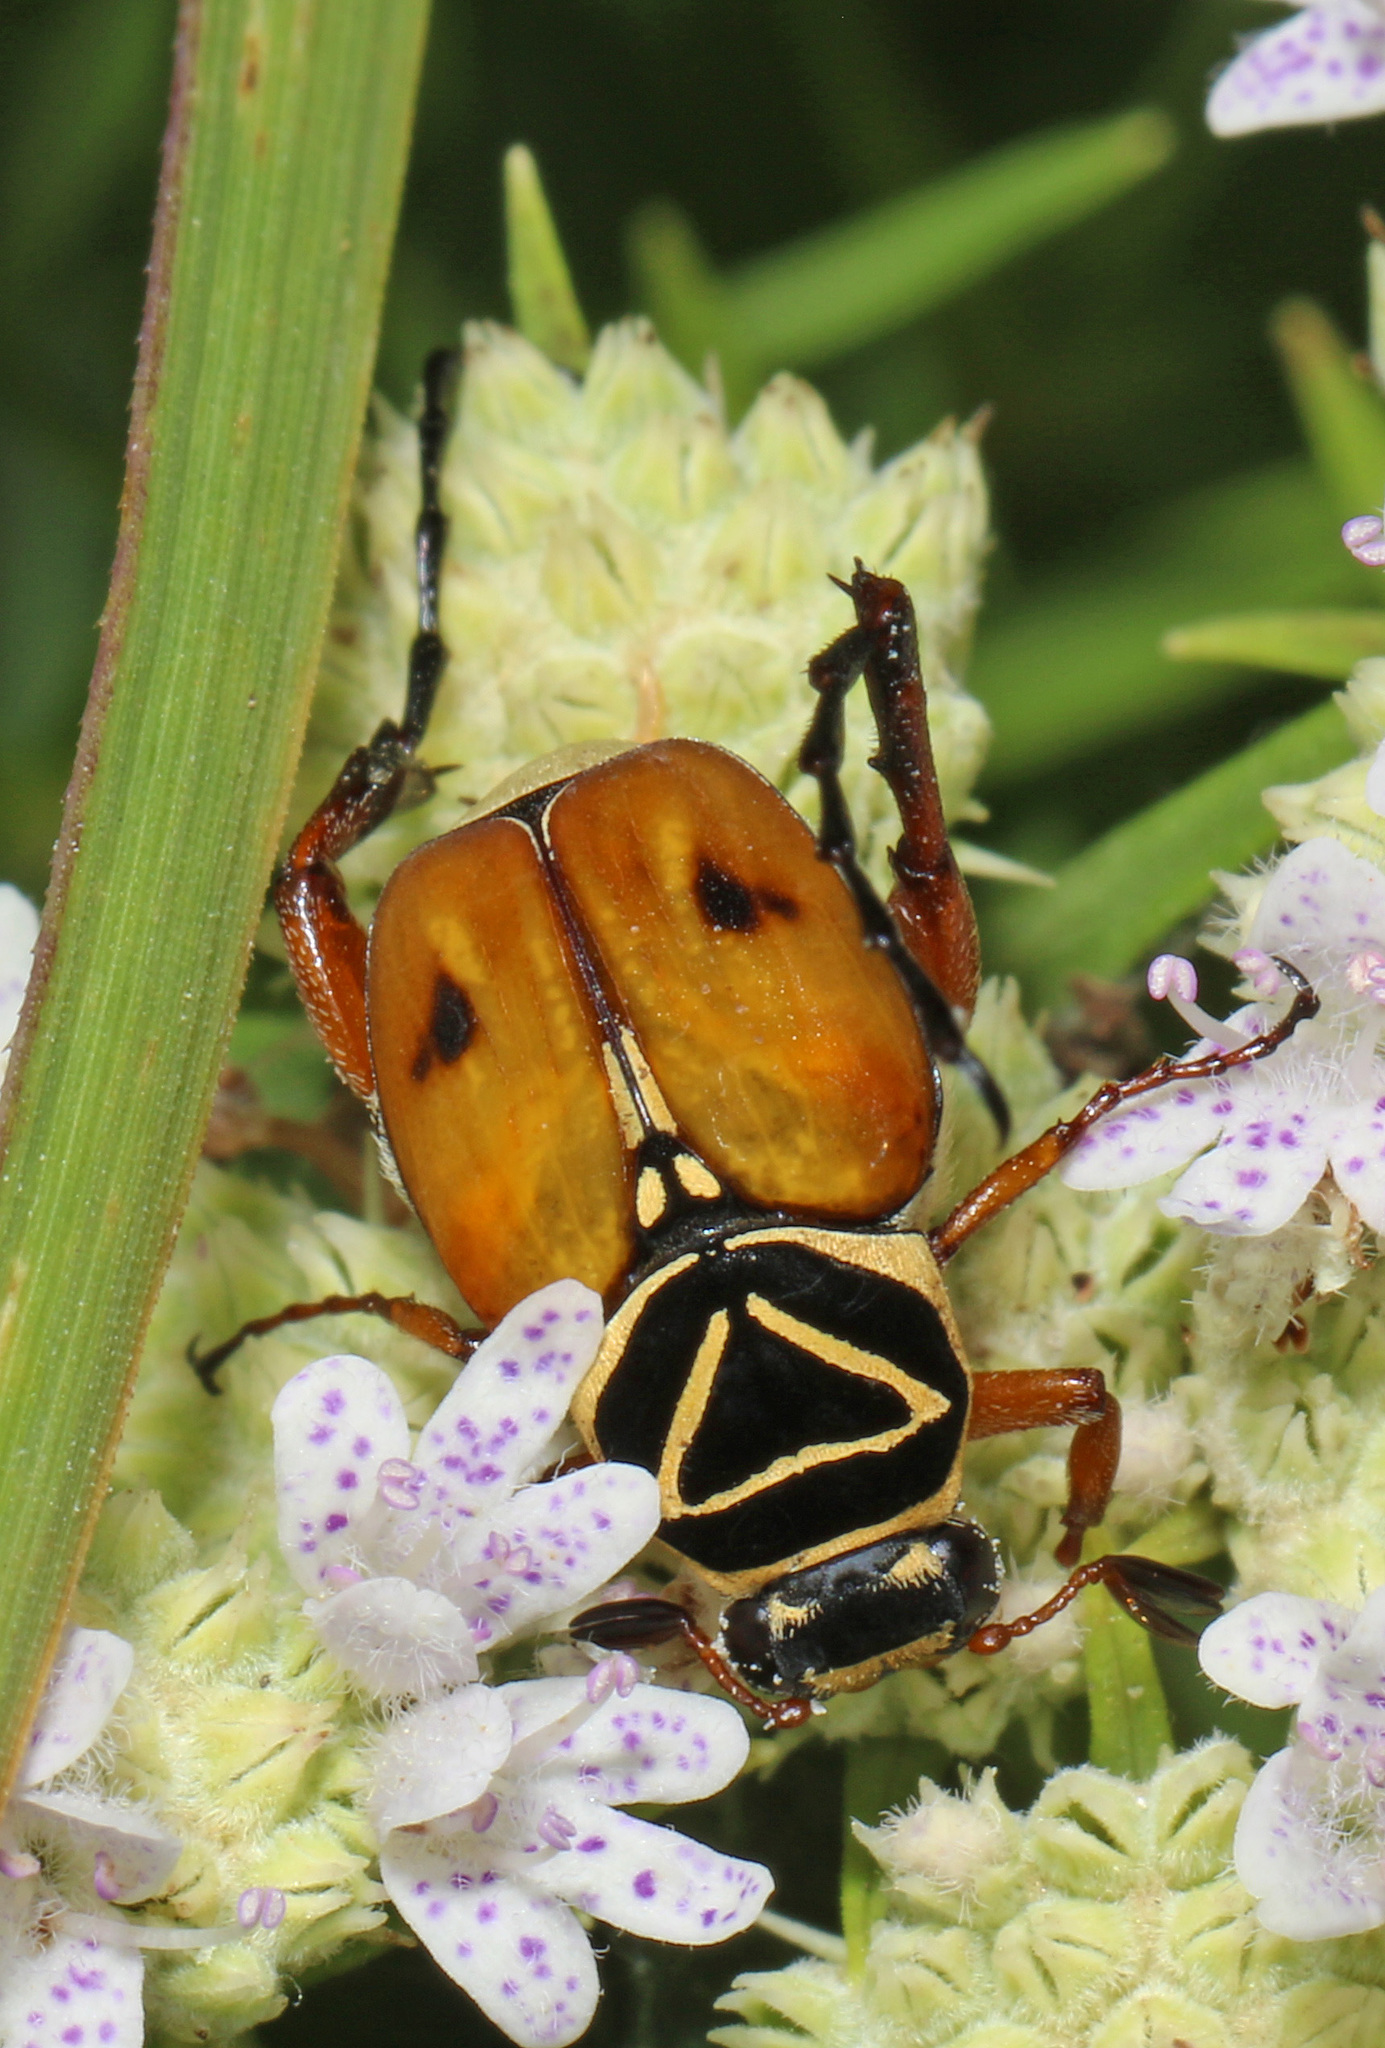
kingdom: Animalia
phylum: Arthropoda
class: Insecta
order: Coleoptera
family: Scarabaeidae
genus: Trigonopeltastes
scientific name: Trigonopeltastes delta
